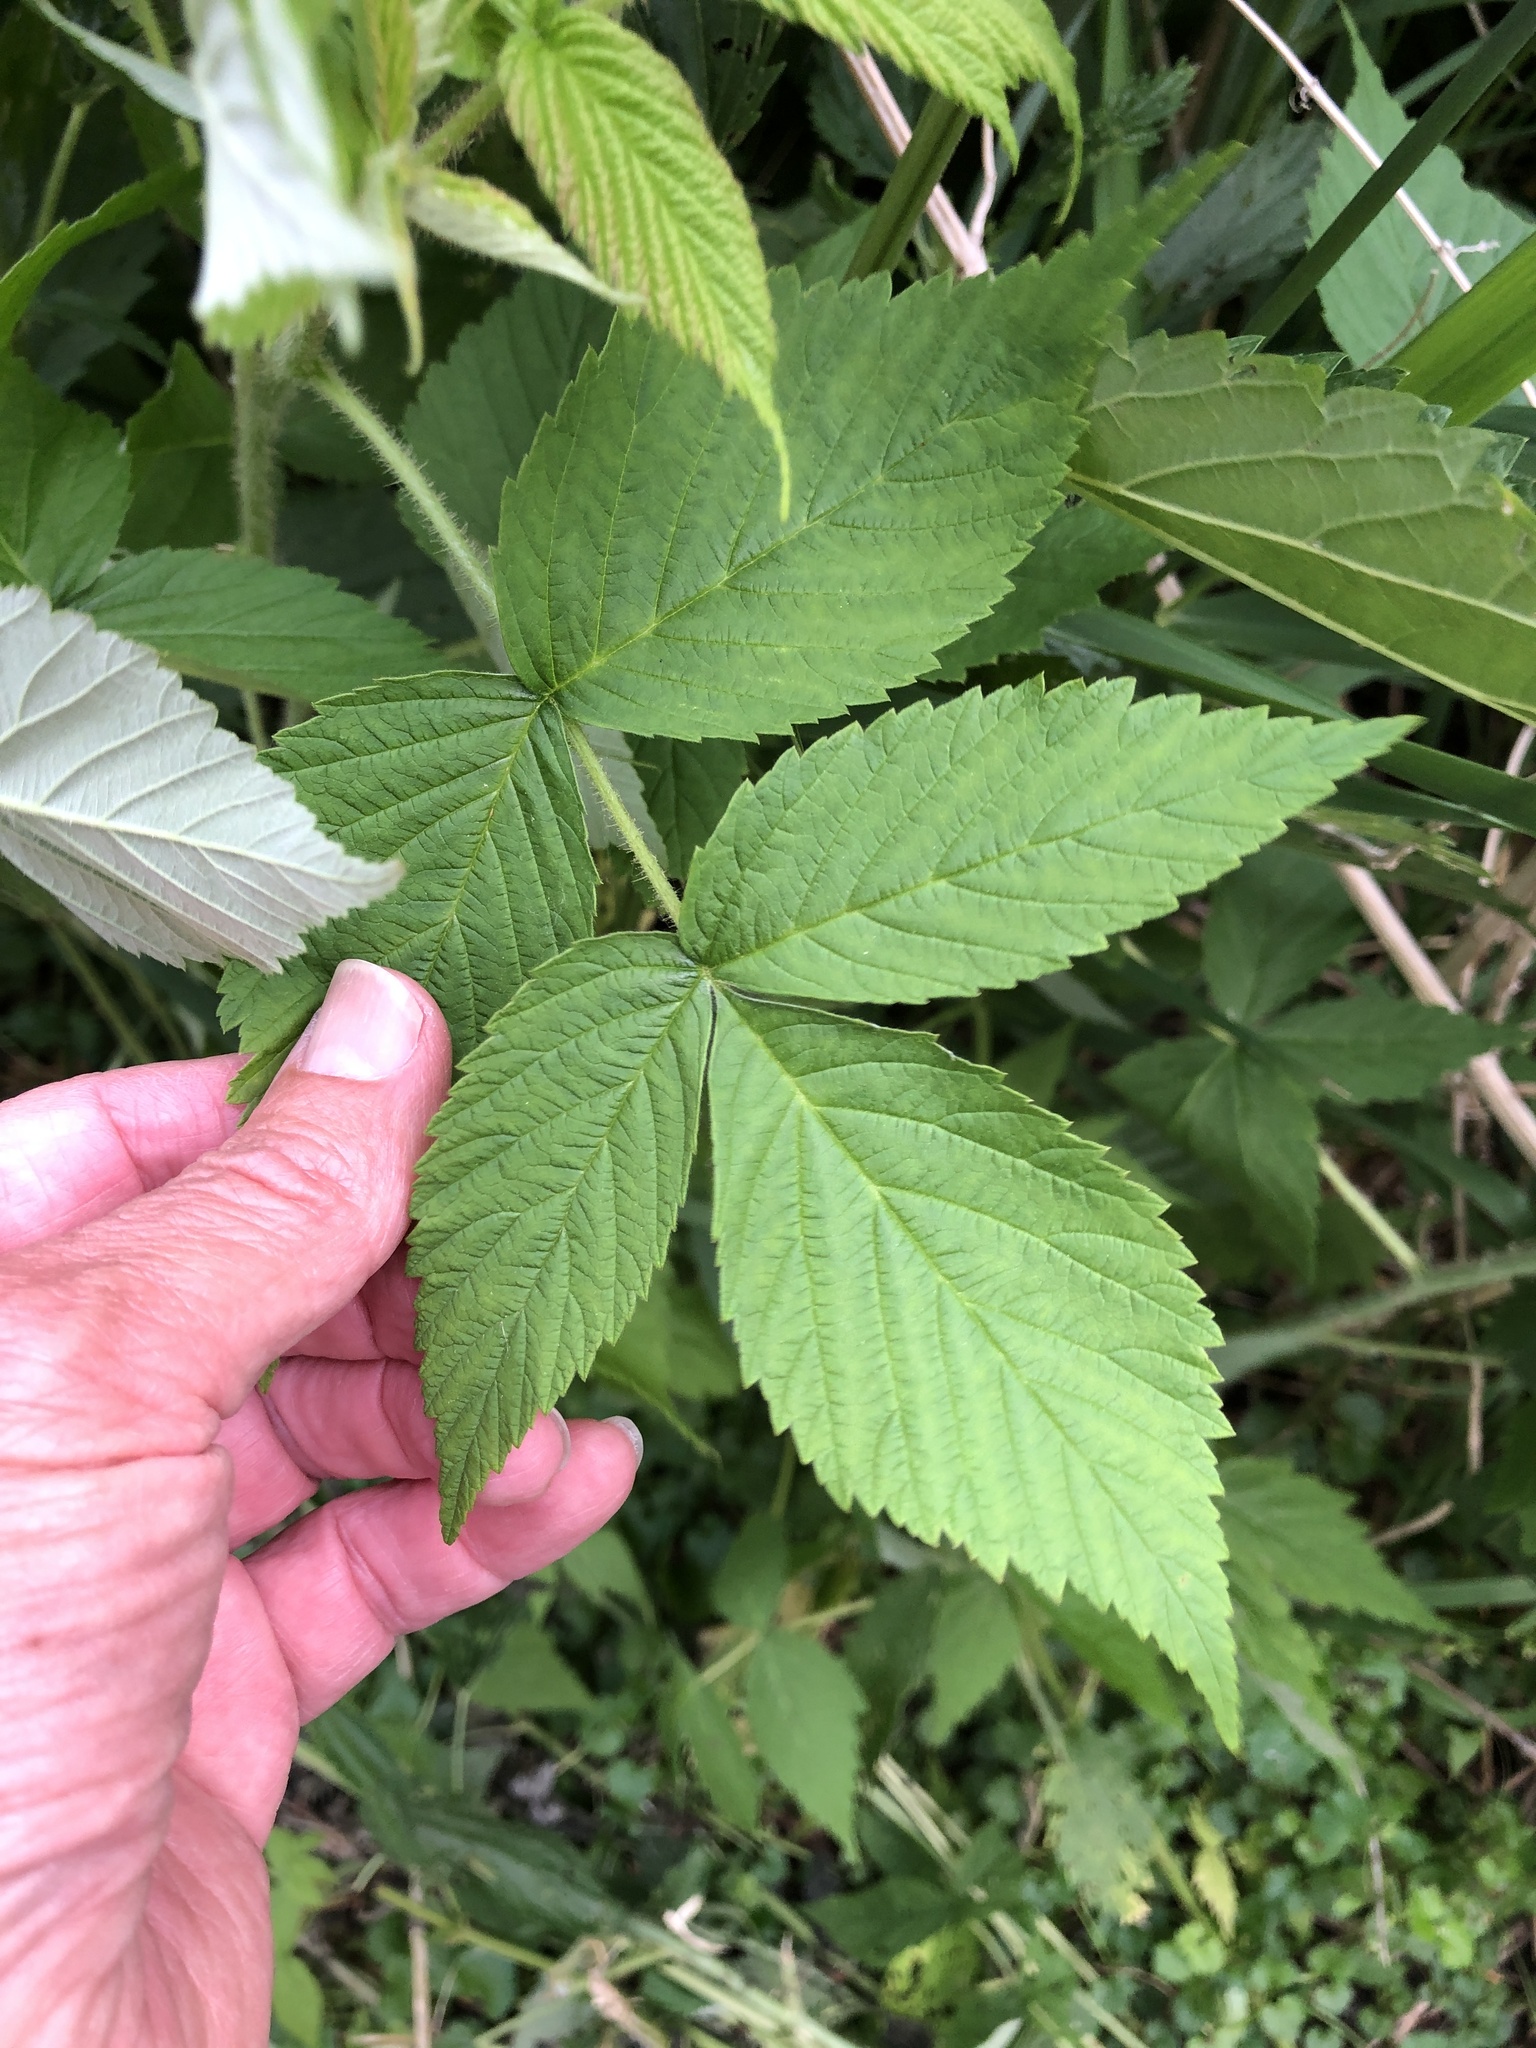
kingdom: Plantae
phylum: Tracheophyta
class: Magnoliopsida
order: Rosales
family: Rosaceae
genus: Rubus
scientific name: Rubus idaeus
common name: Raspberry
